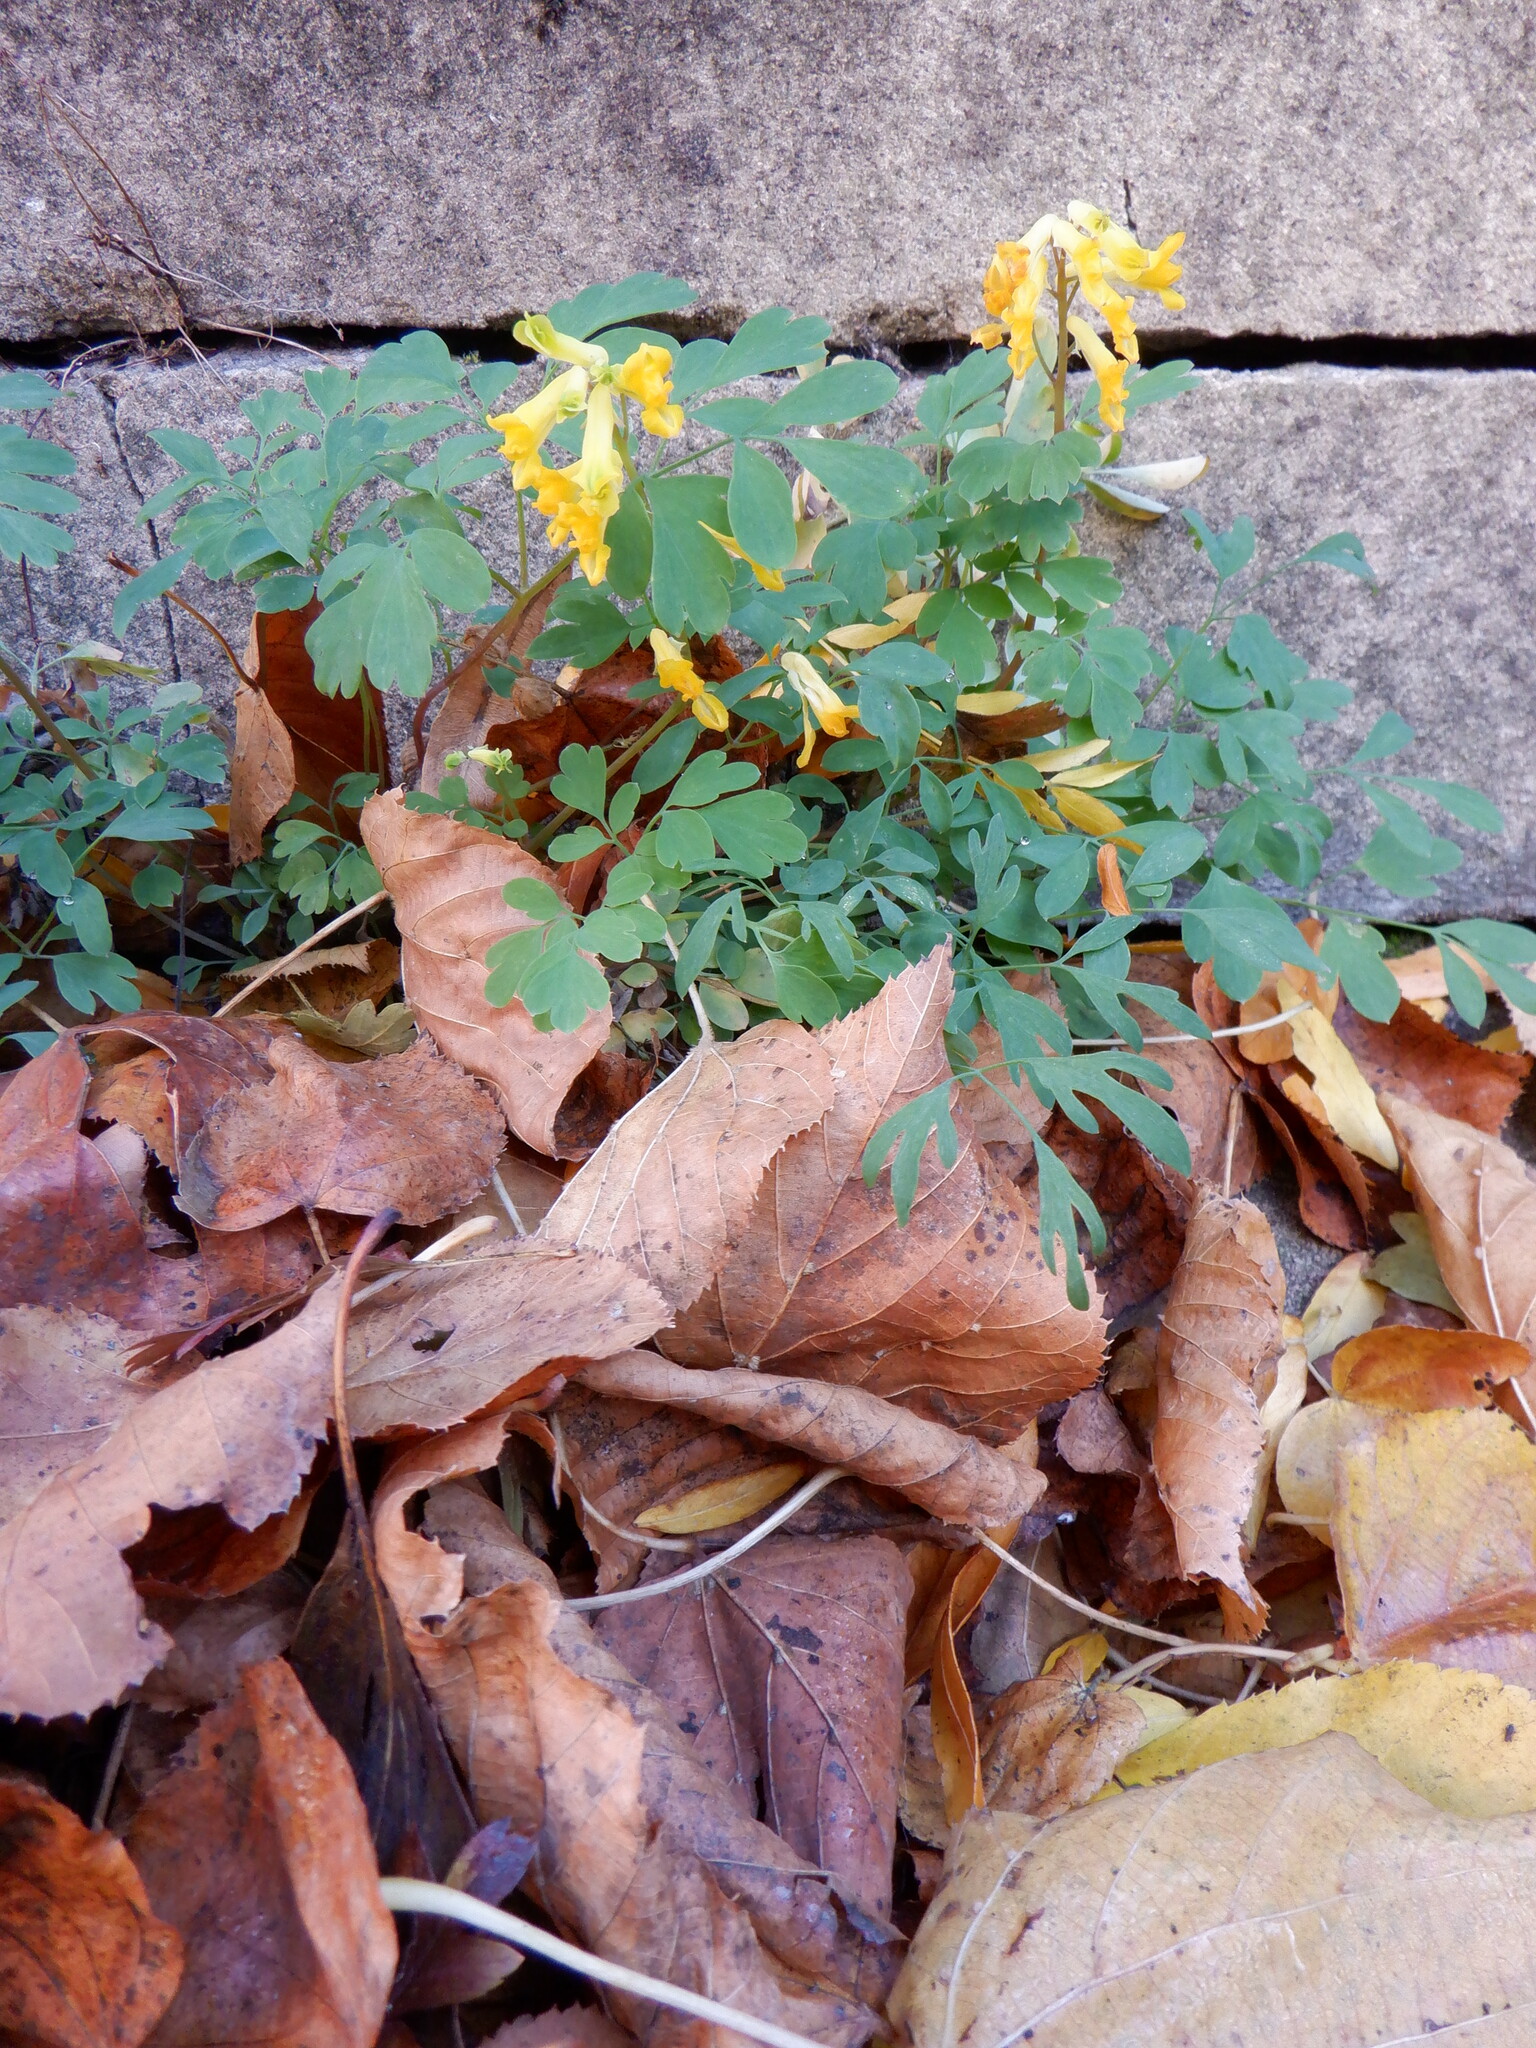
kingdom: Plantae
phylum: Tracheophyta
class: Magnoliopsida
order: Ranunculales
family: Papaveraceae
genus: Pseudofumaria
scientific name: Pseudofumaria lutea
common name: Yellow corydalis
